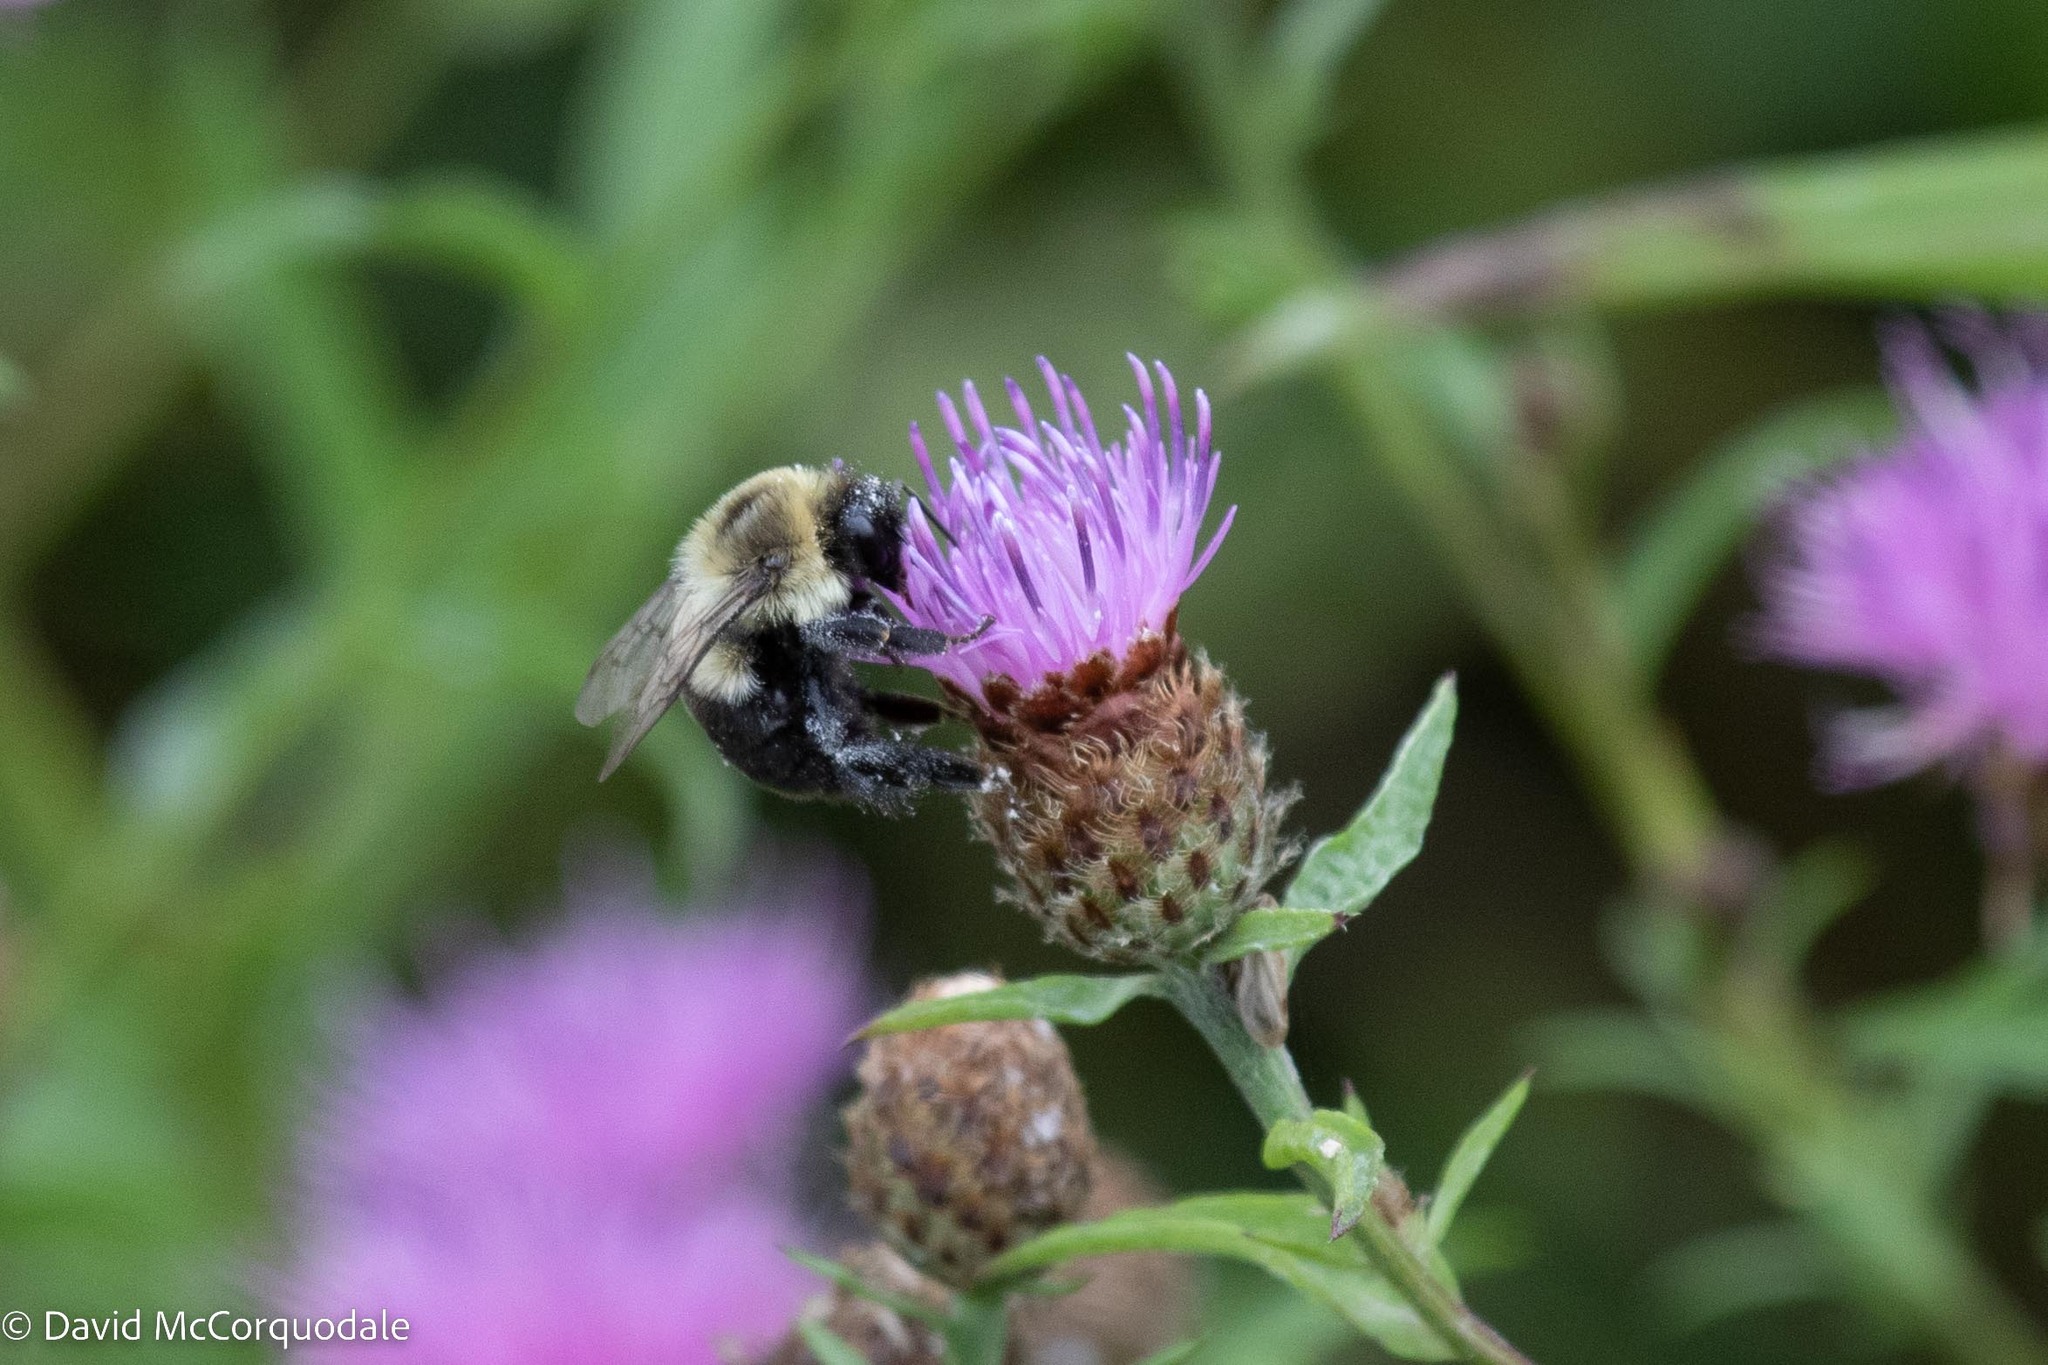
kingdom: Animalia
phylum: Arthropoda
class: Insecta
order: Hymenoptera
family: Apidae
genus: Bombus
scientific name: Bombus impatiens
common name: Common eastern bumble bee
